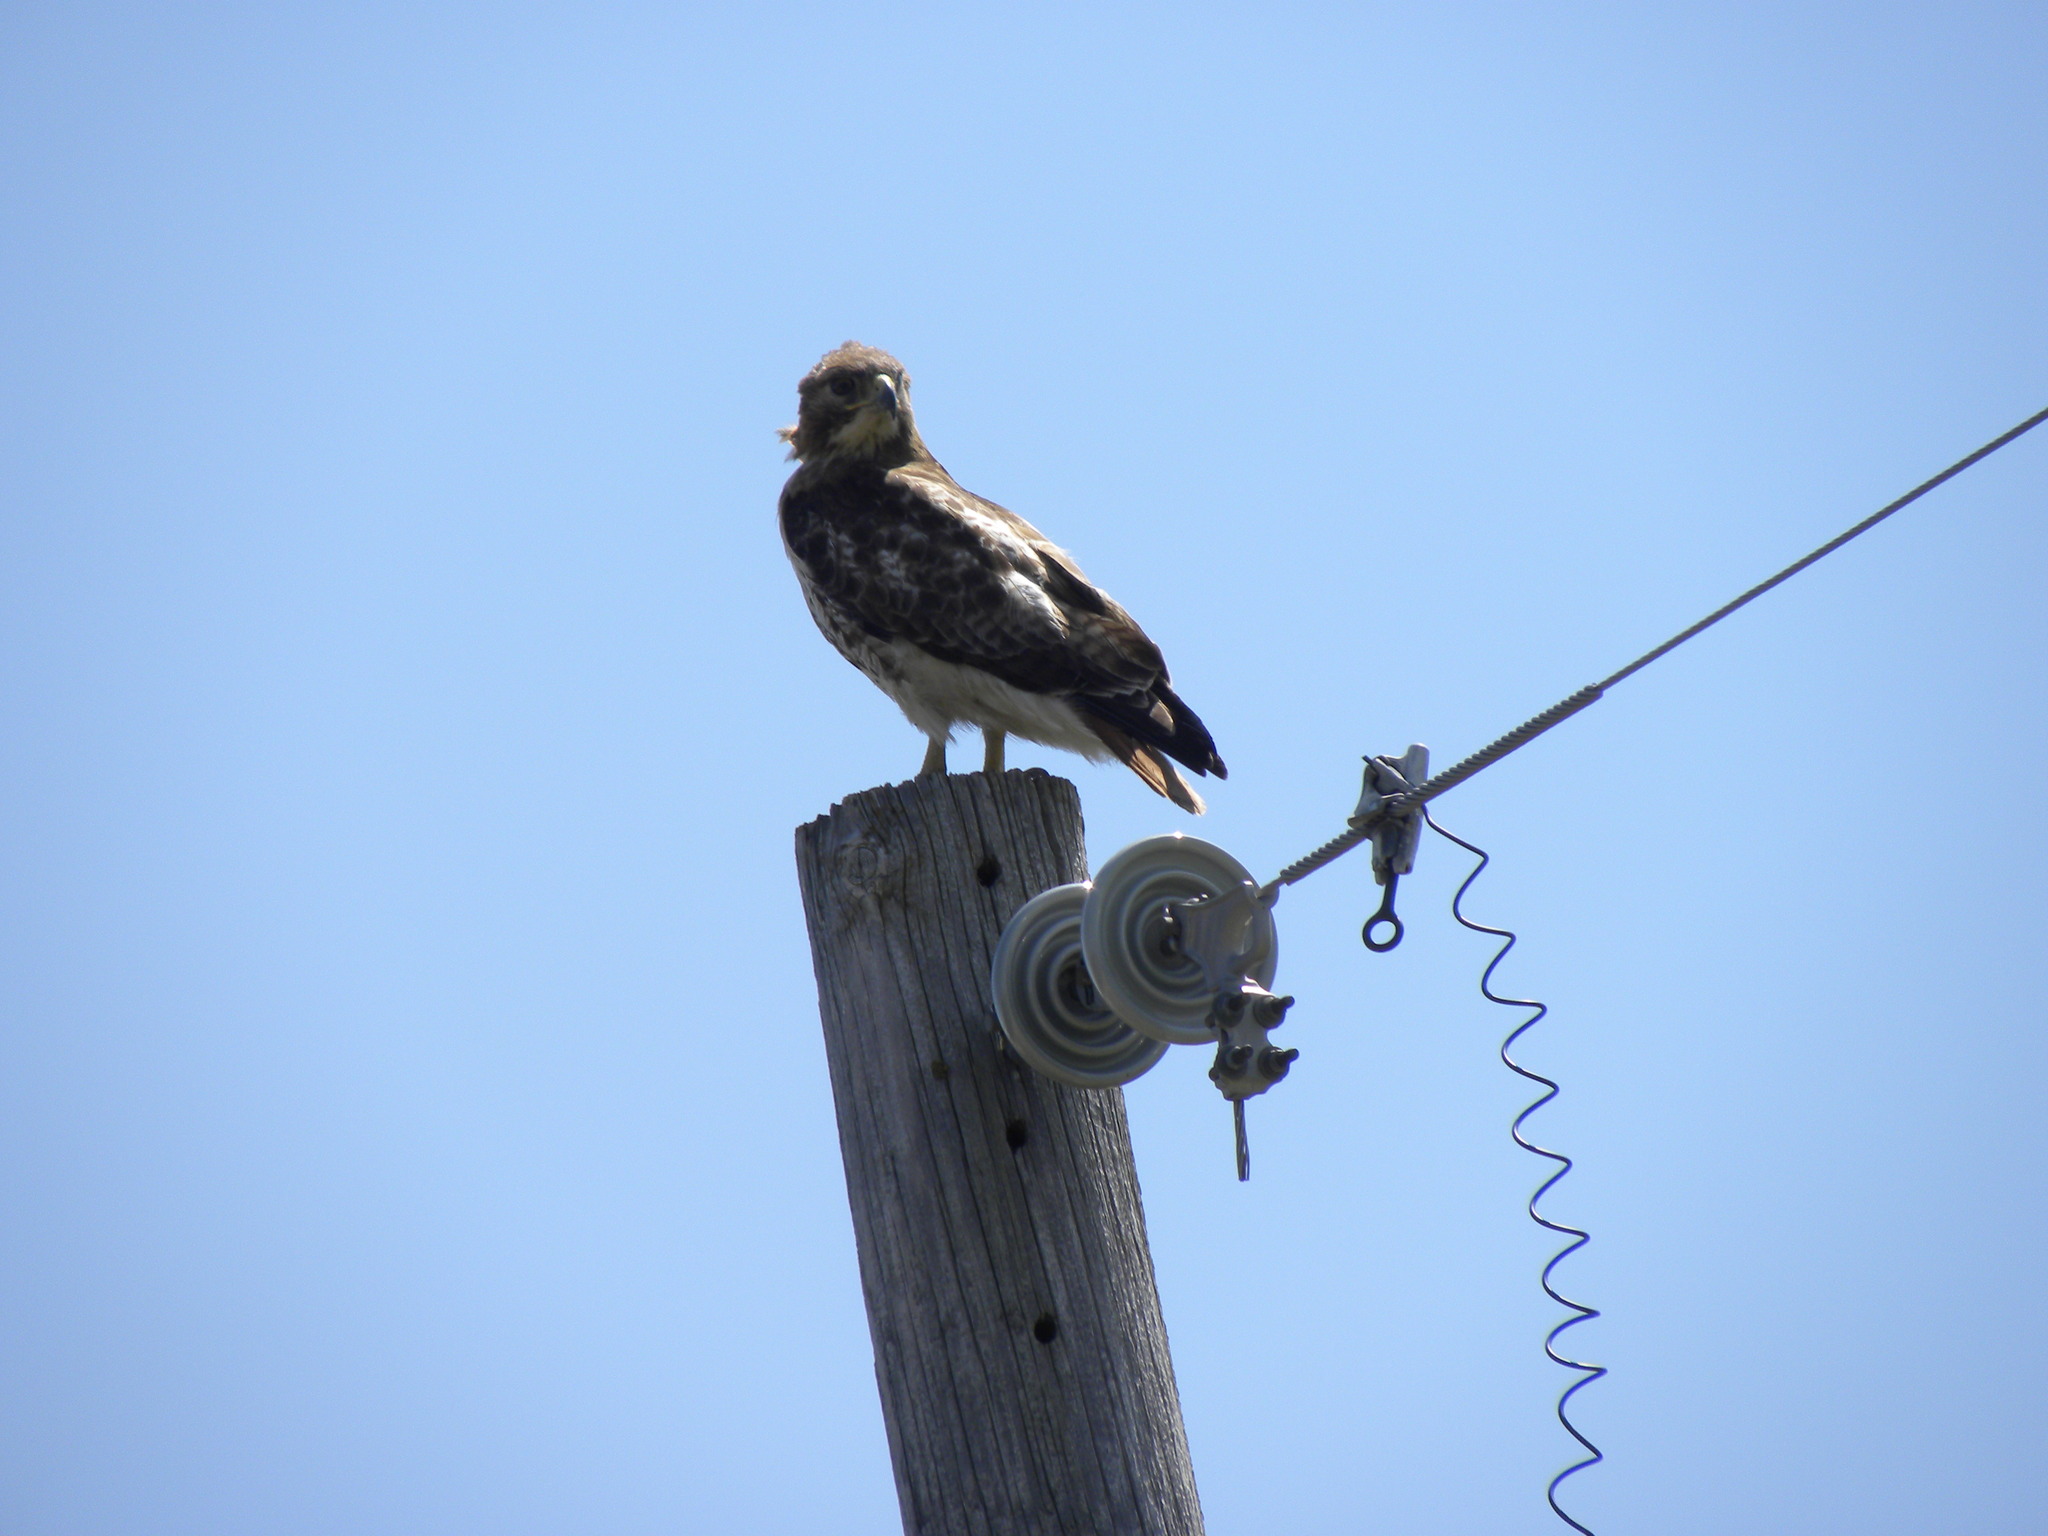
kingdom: Animalia
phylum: Chordata
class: Aves
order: Accipitriformes
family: Accipitridae
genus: Buteo
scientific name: Buteo jamaicensis
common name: Red-tailed hawk
